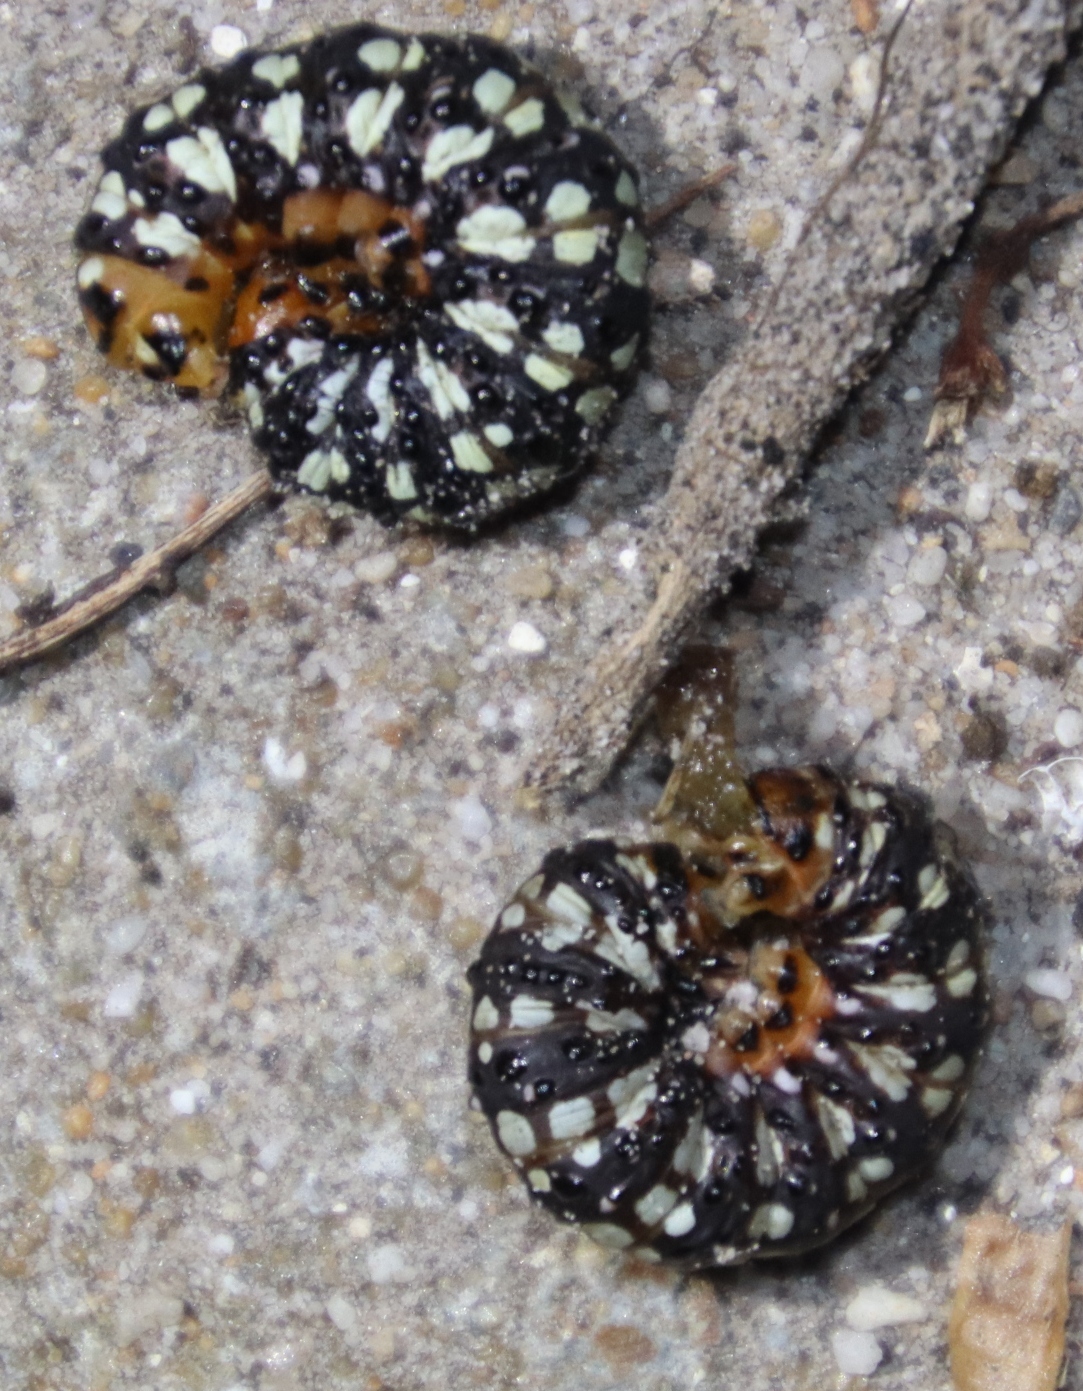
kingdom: Animalia
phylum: Arthropoda
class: Insecta
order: Lepidoptera
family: Noctuidae
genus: Brithys
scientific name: Brithys crini
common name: Kew arches
